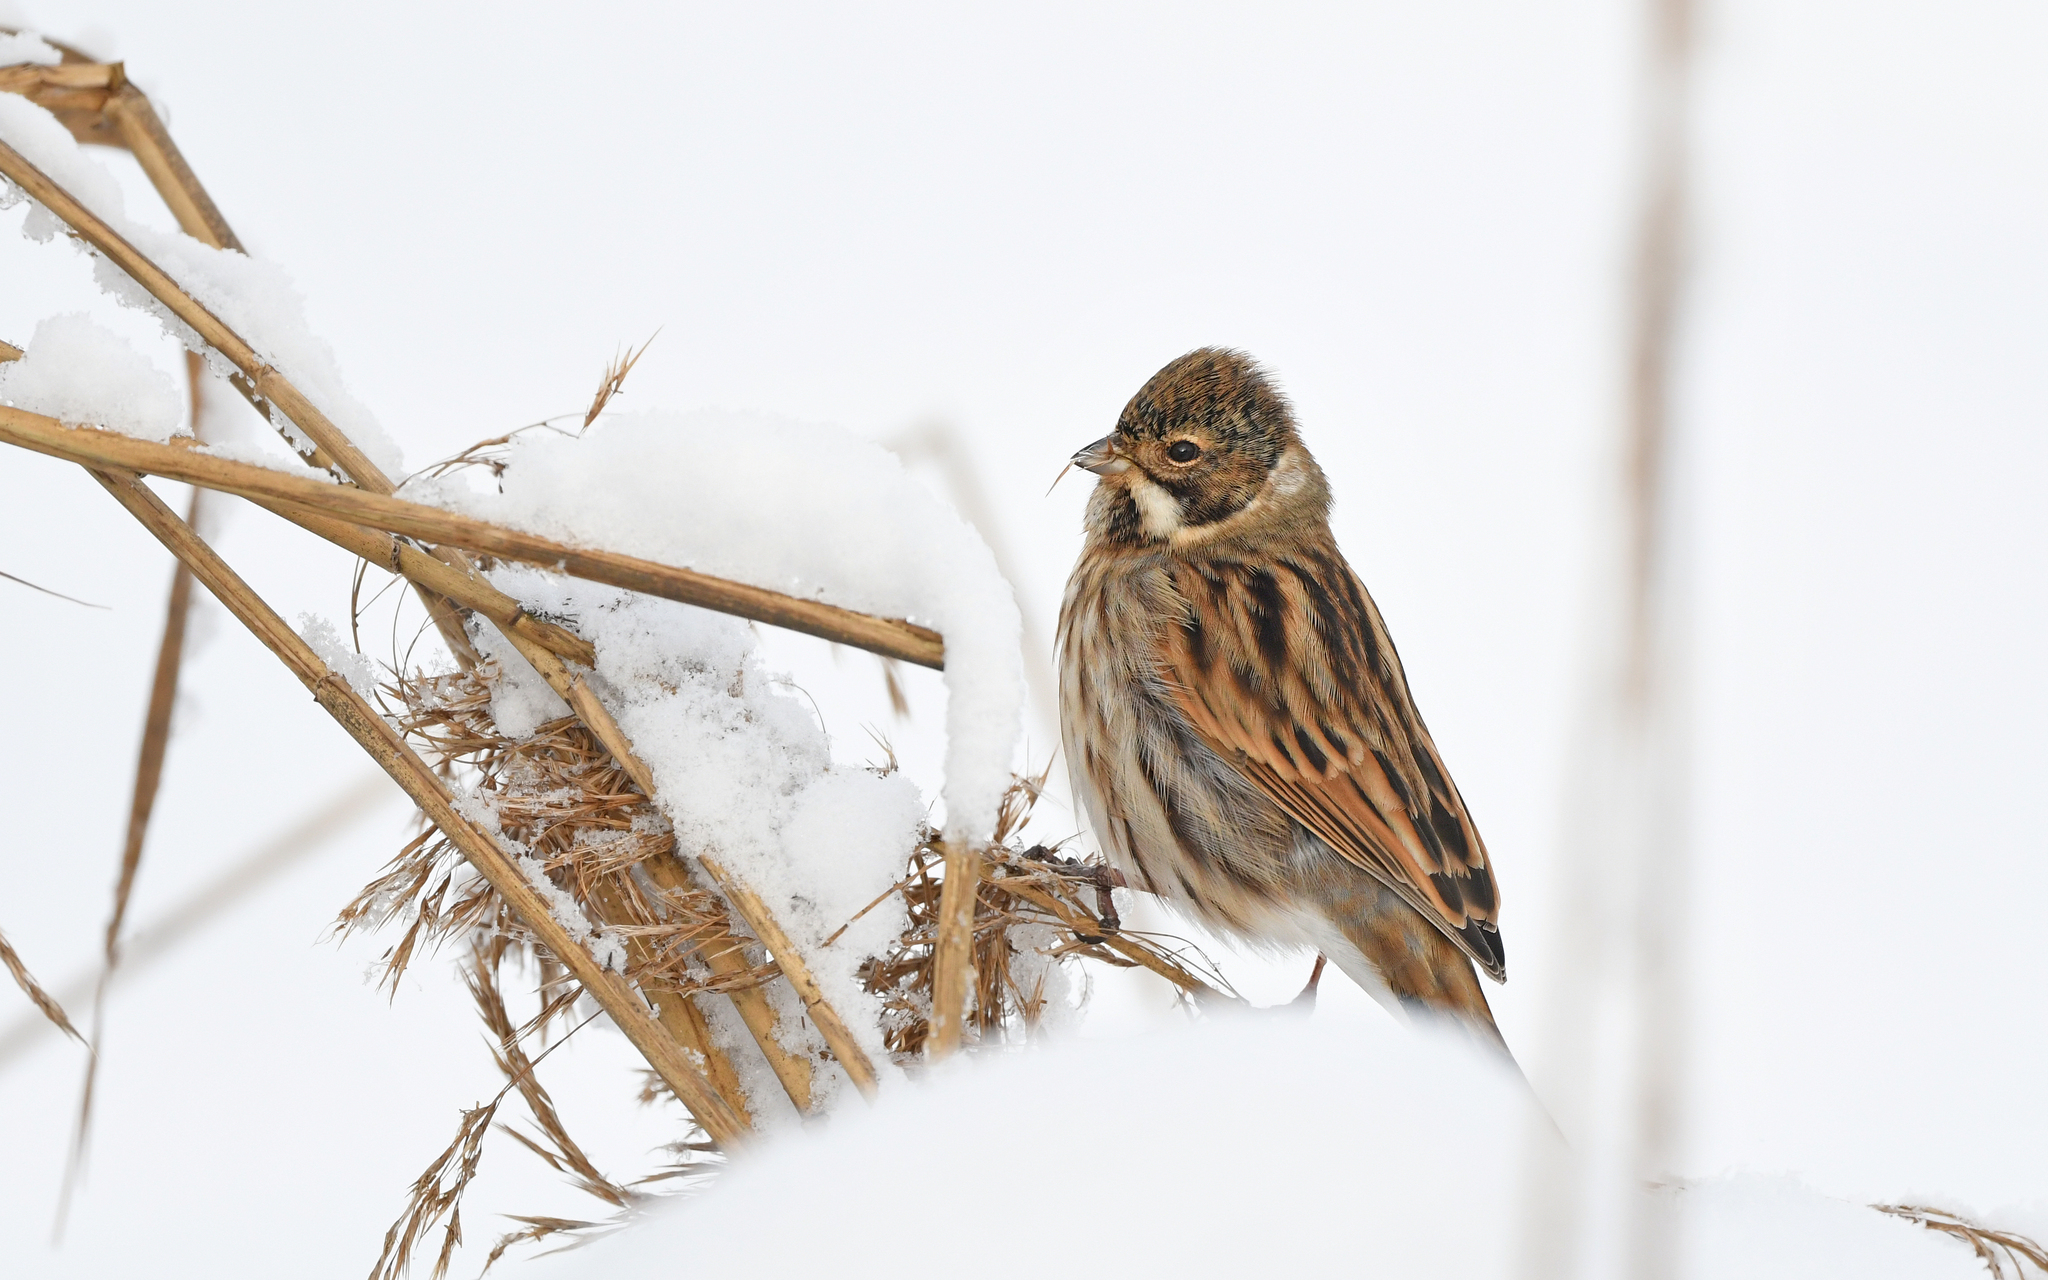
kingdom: Animalia
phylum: Chordata
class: Aves
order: Passeriformes
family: Emberizidae
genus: Emberiza
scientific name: Emberiza schoeniclus
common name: Reed bunting
